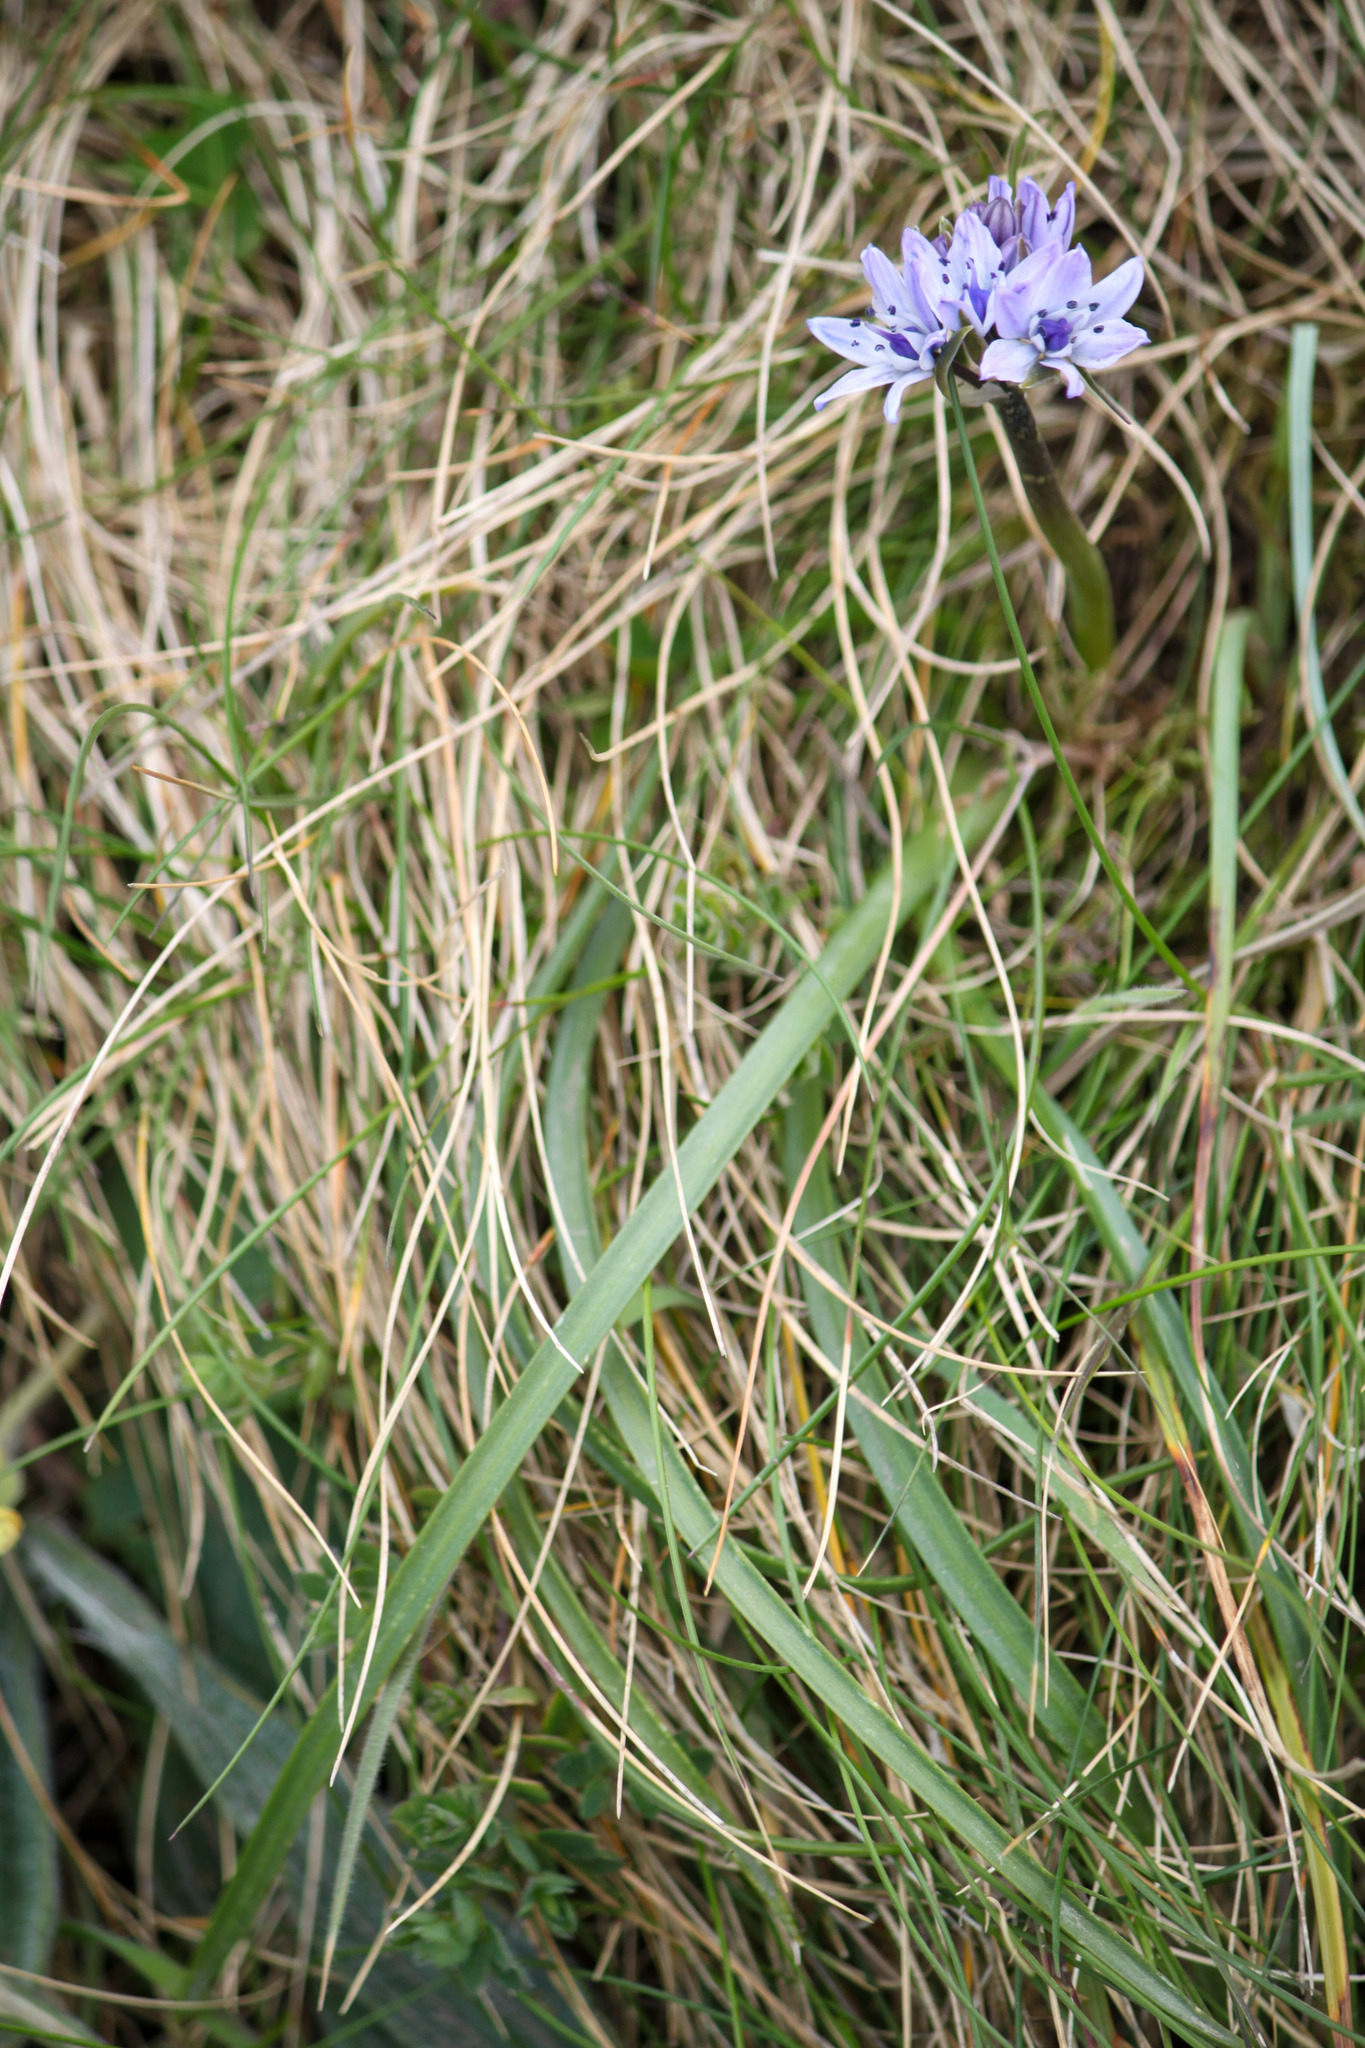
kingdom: Plantae
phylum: Tracheophyta
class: Liliopsida
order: Asparagales
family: Asparagaceae
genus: Scilla
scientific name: Scilla verna
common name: Spring squill
